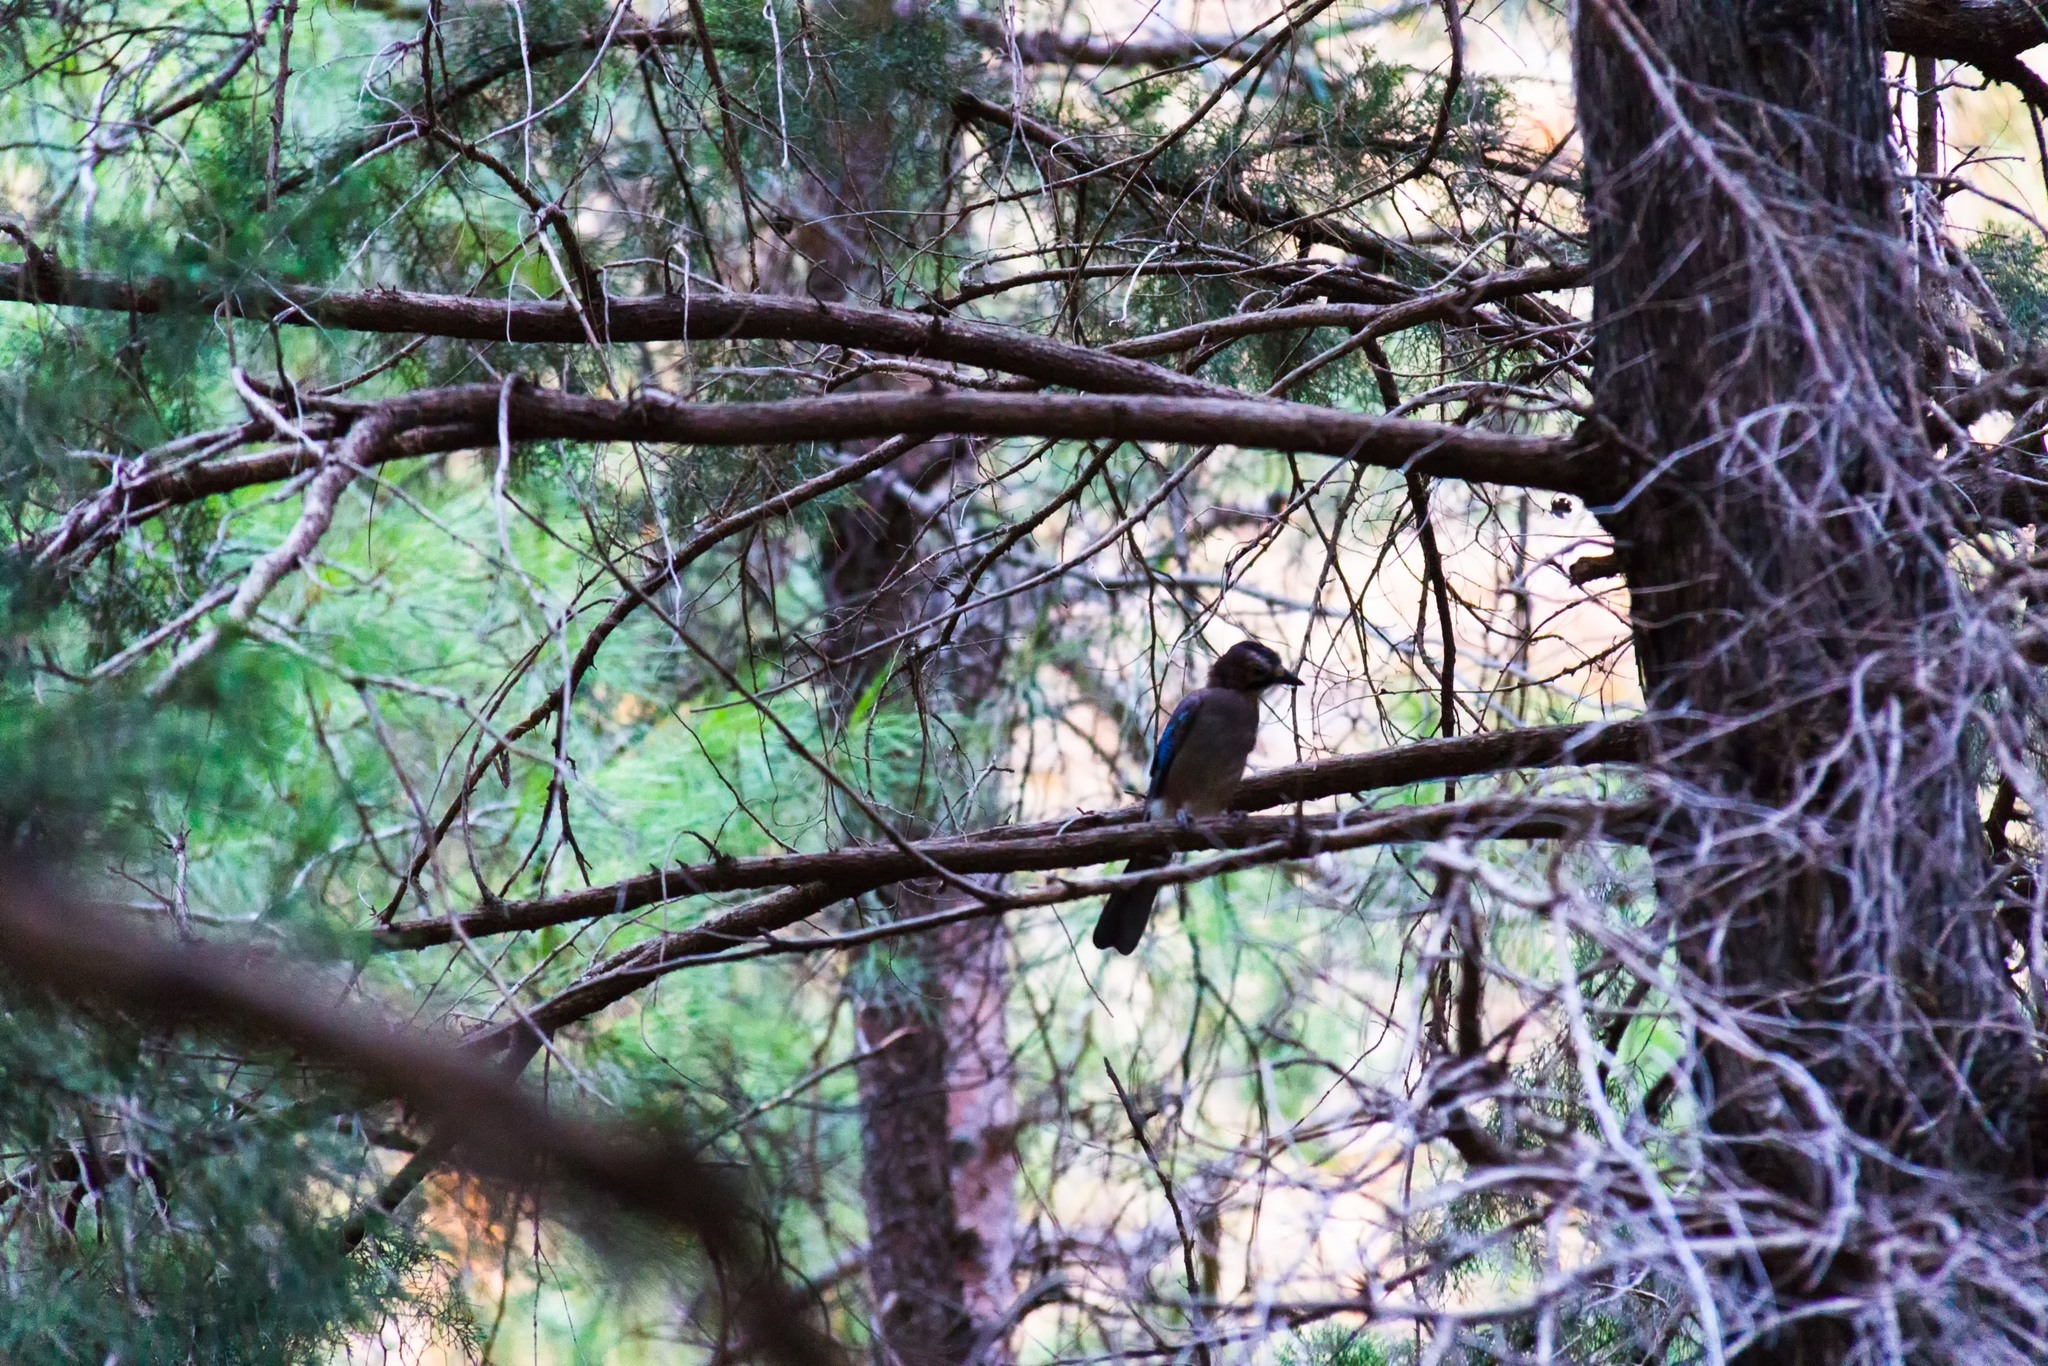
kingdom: Animalia
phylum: Chordata
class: Aves
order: Passeriformes
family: Corvidae
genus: Garrulus
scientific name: Garrulus glandarius
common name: Eurasian jay
